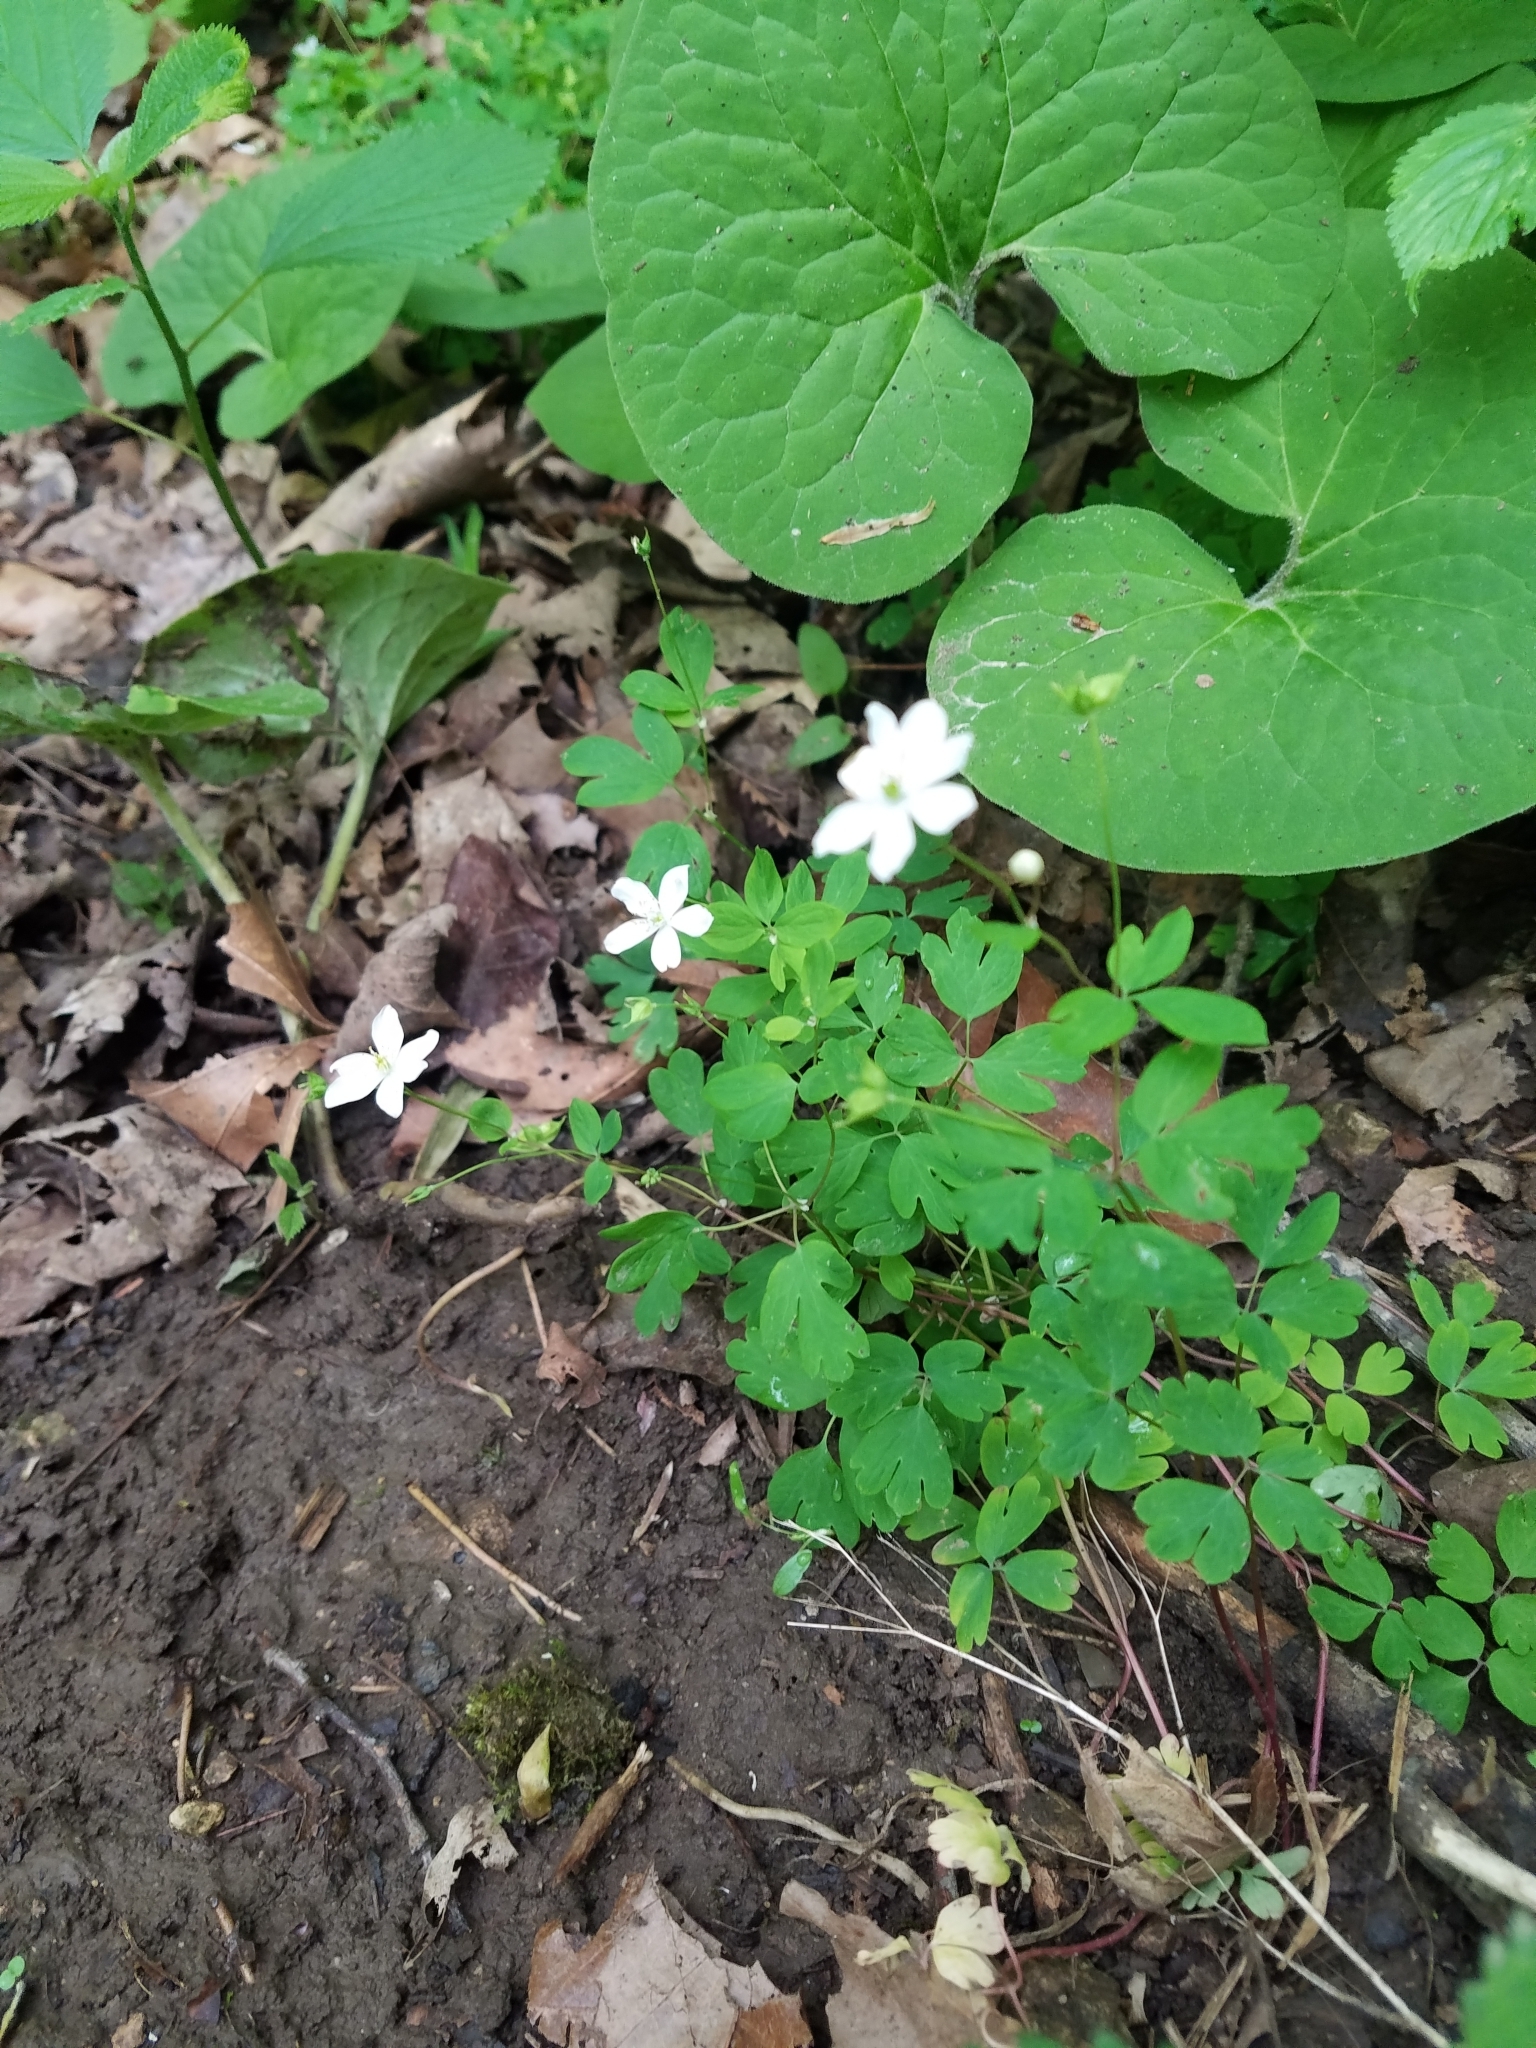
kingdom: Plantae
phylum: Tracheophyta
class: Magnoliopsida
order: Ranunculales
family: Ranunculaceae
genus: Enemion
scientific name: Enemion biternatum
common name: Eastern false rue-anemone
